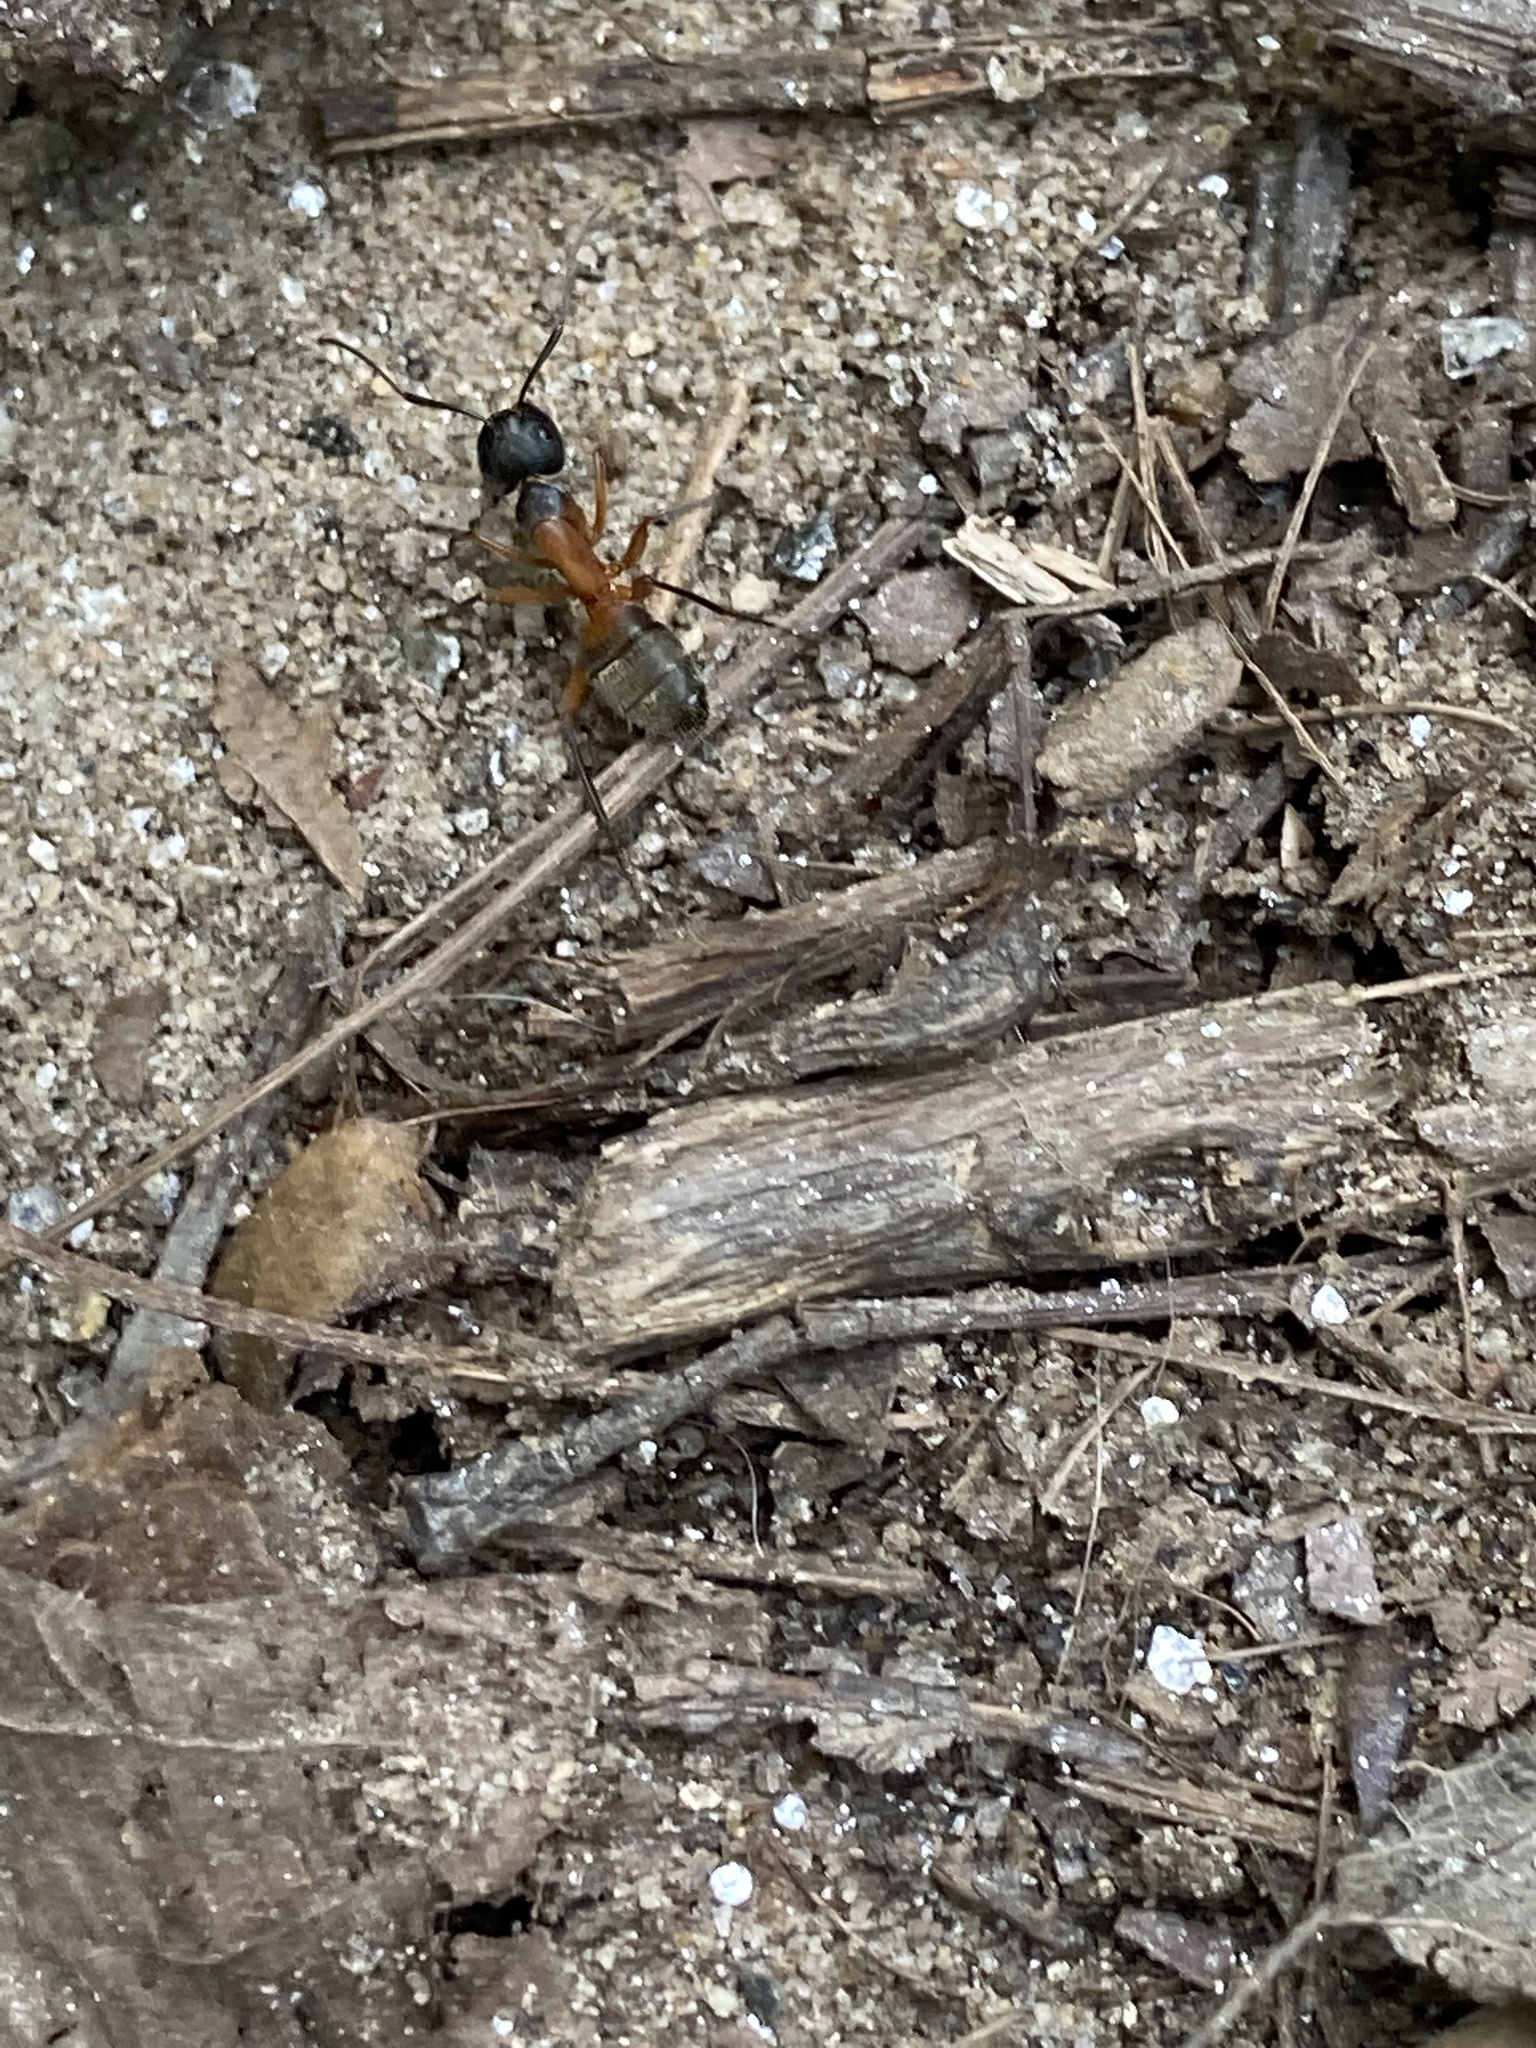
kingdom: Animalia
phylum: Arthropoda
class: Insecta
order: Hymenoptera
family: Formicidae
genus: Camponotus
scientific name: Camponotus chromaiodes
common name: Red carpenter ant
